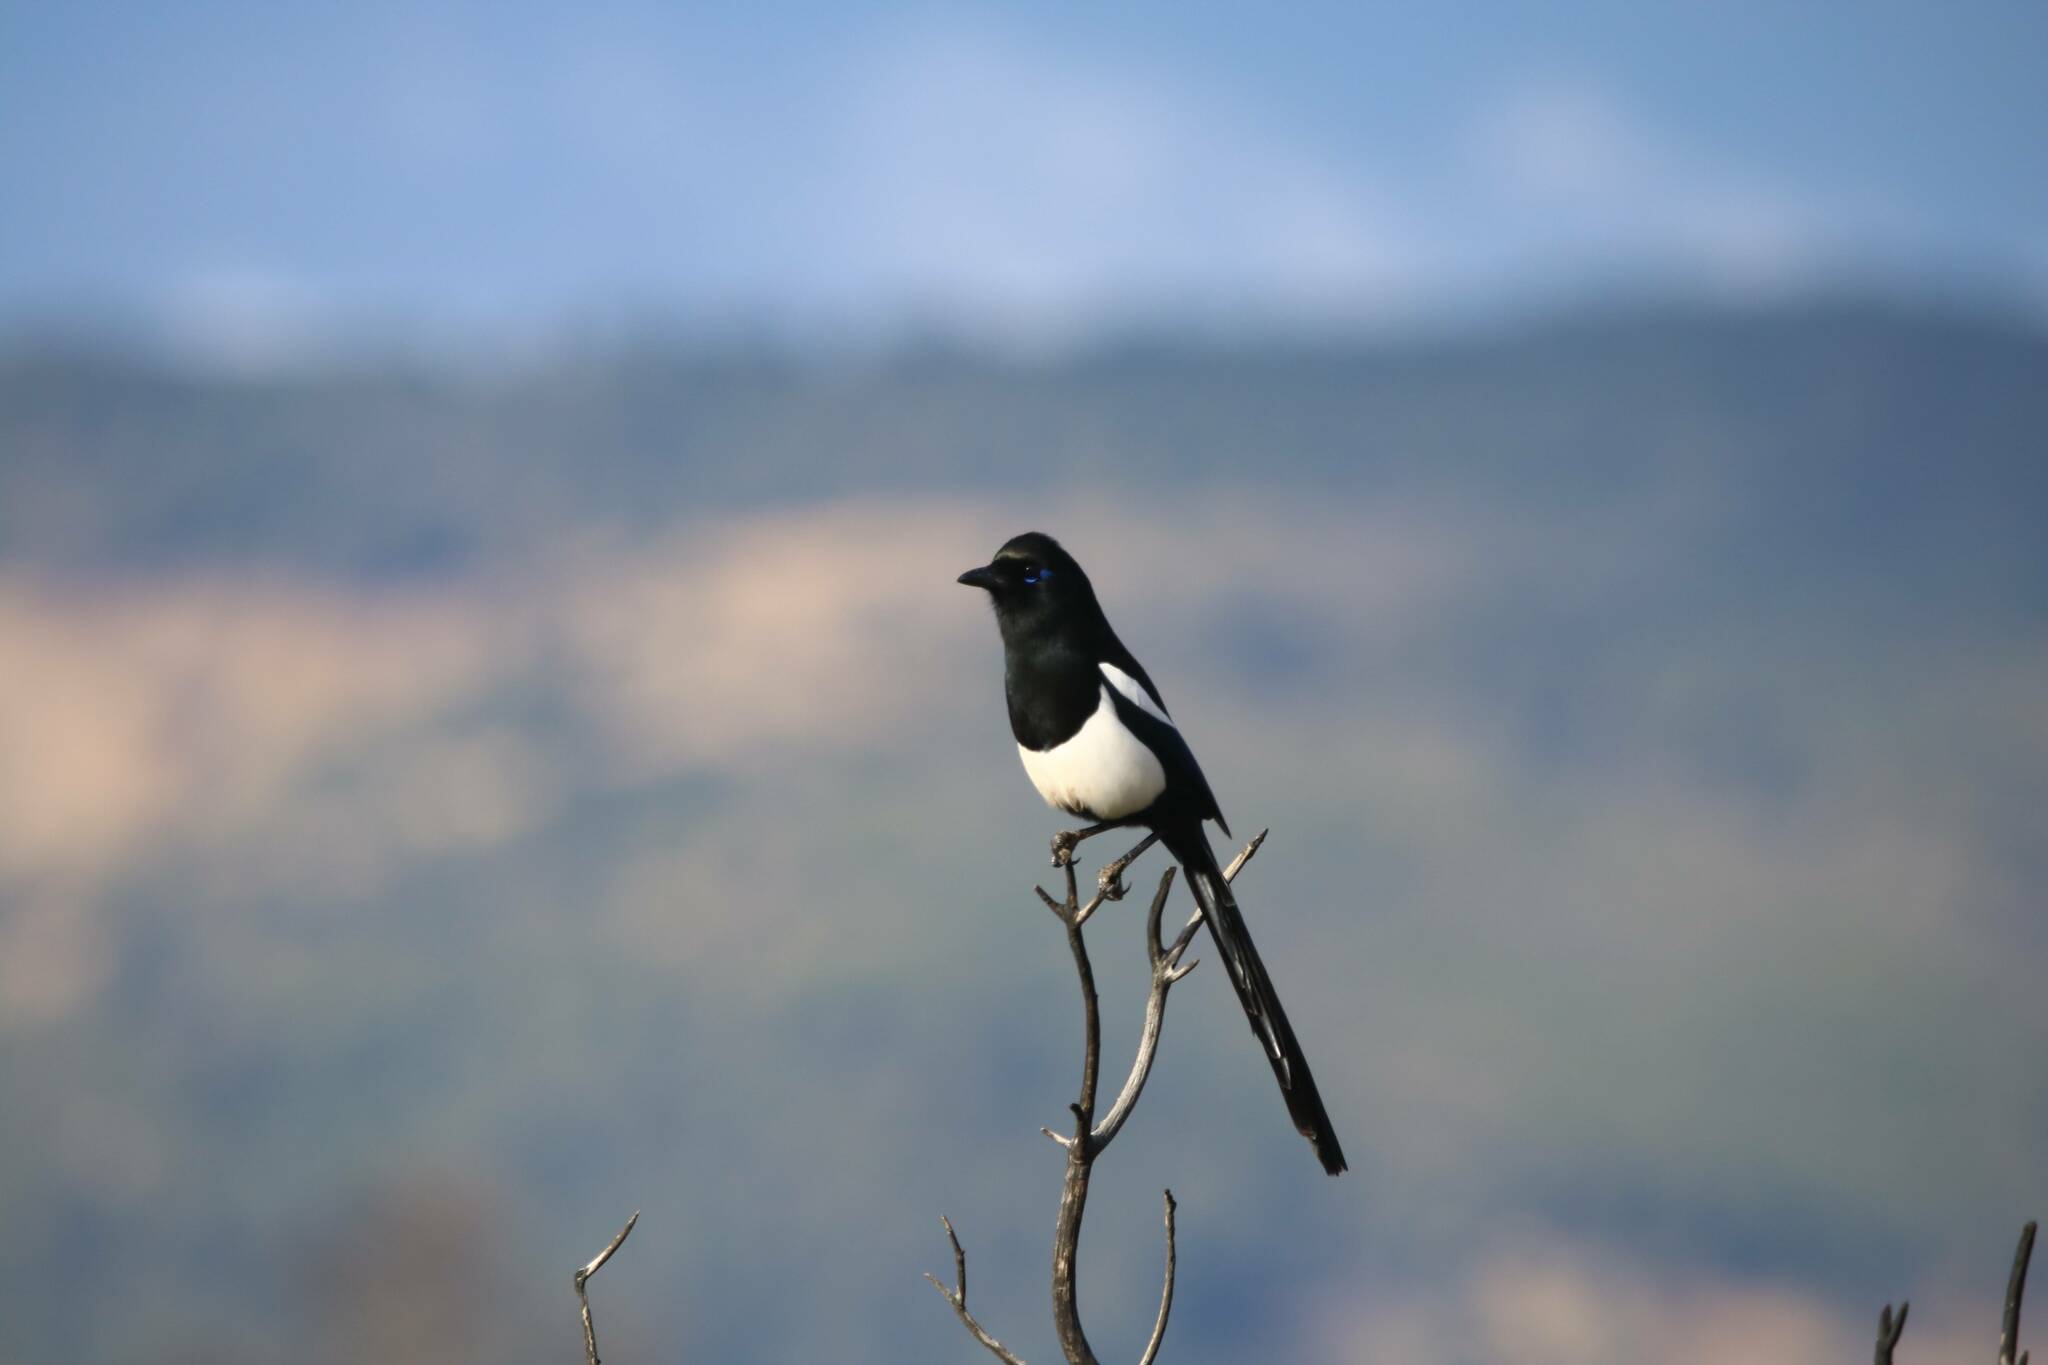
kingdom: Animalia
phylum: Chordata
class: Aves
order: Passeriformes
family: Corvidae
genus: Pica
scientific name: Pica mauritanica
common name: Maghreb magpie
